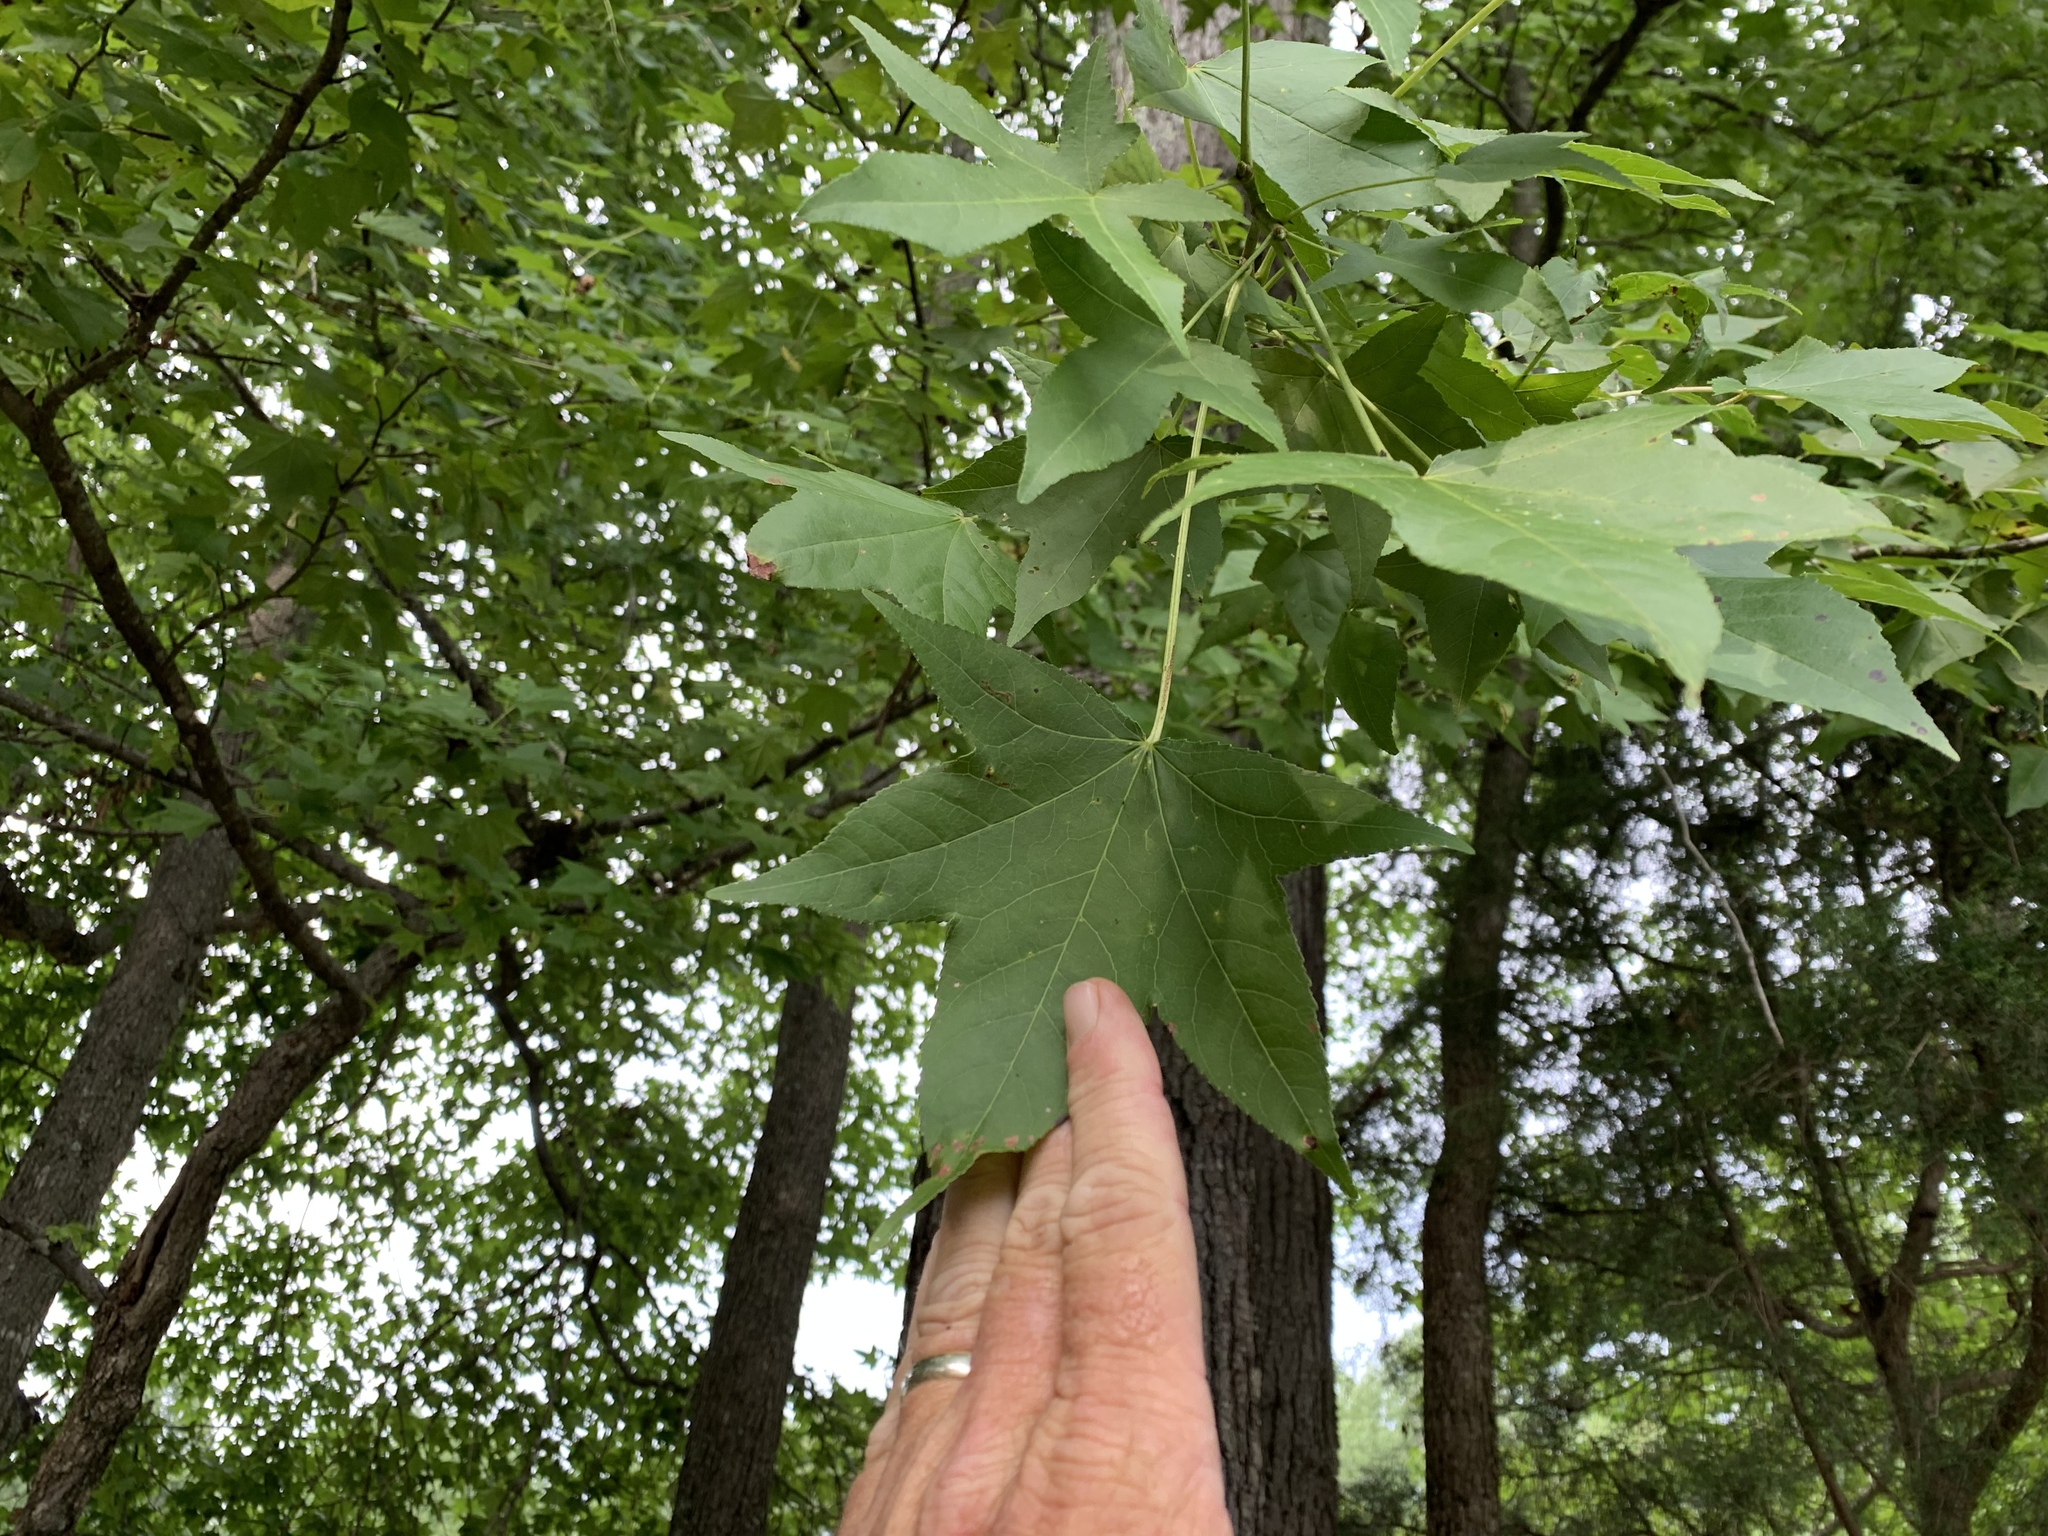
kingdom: Plantae
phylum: Tracheophyta
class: Magnoliopsida
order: Saxifragales
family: Altingiaceae
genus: Liquidambar
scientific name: Liquidambar styraciflua
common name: Sweet gum
